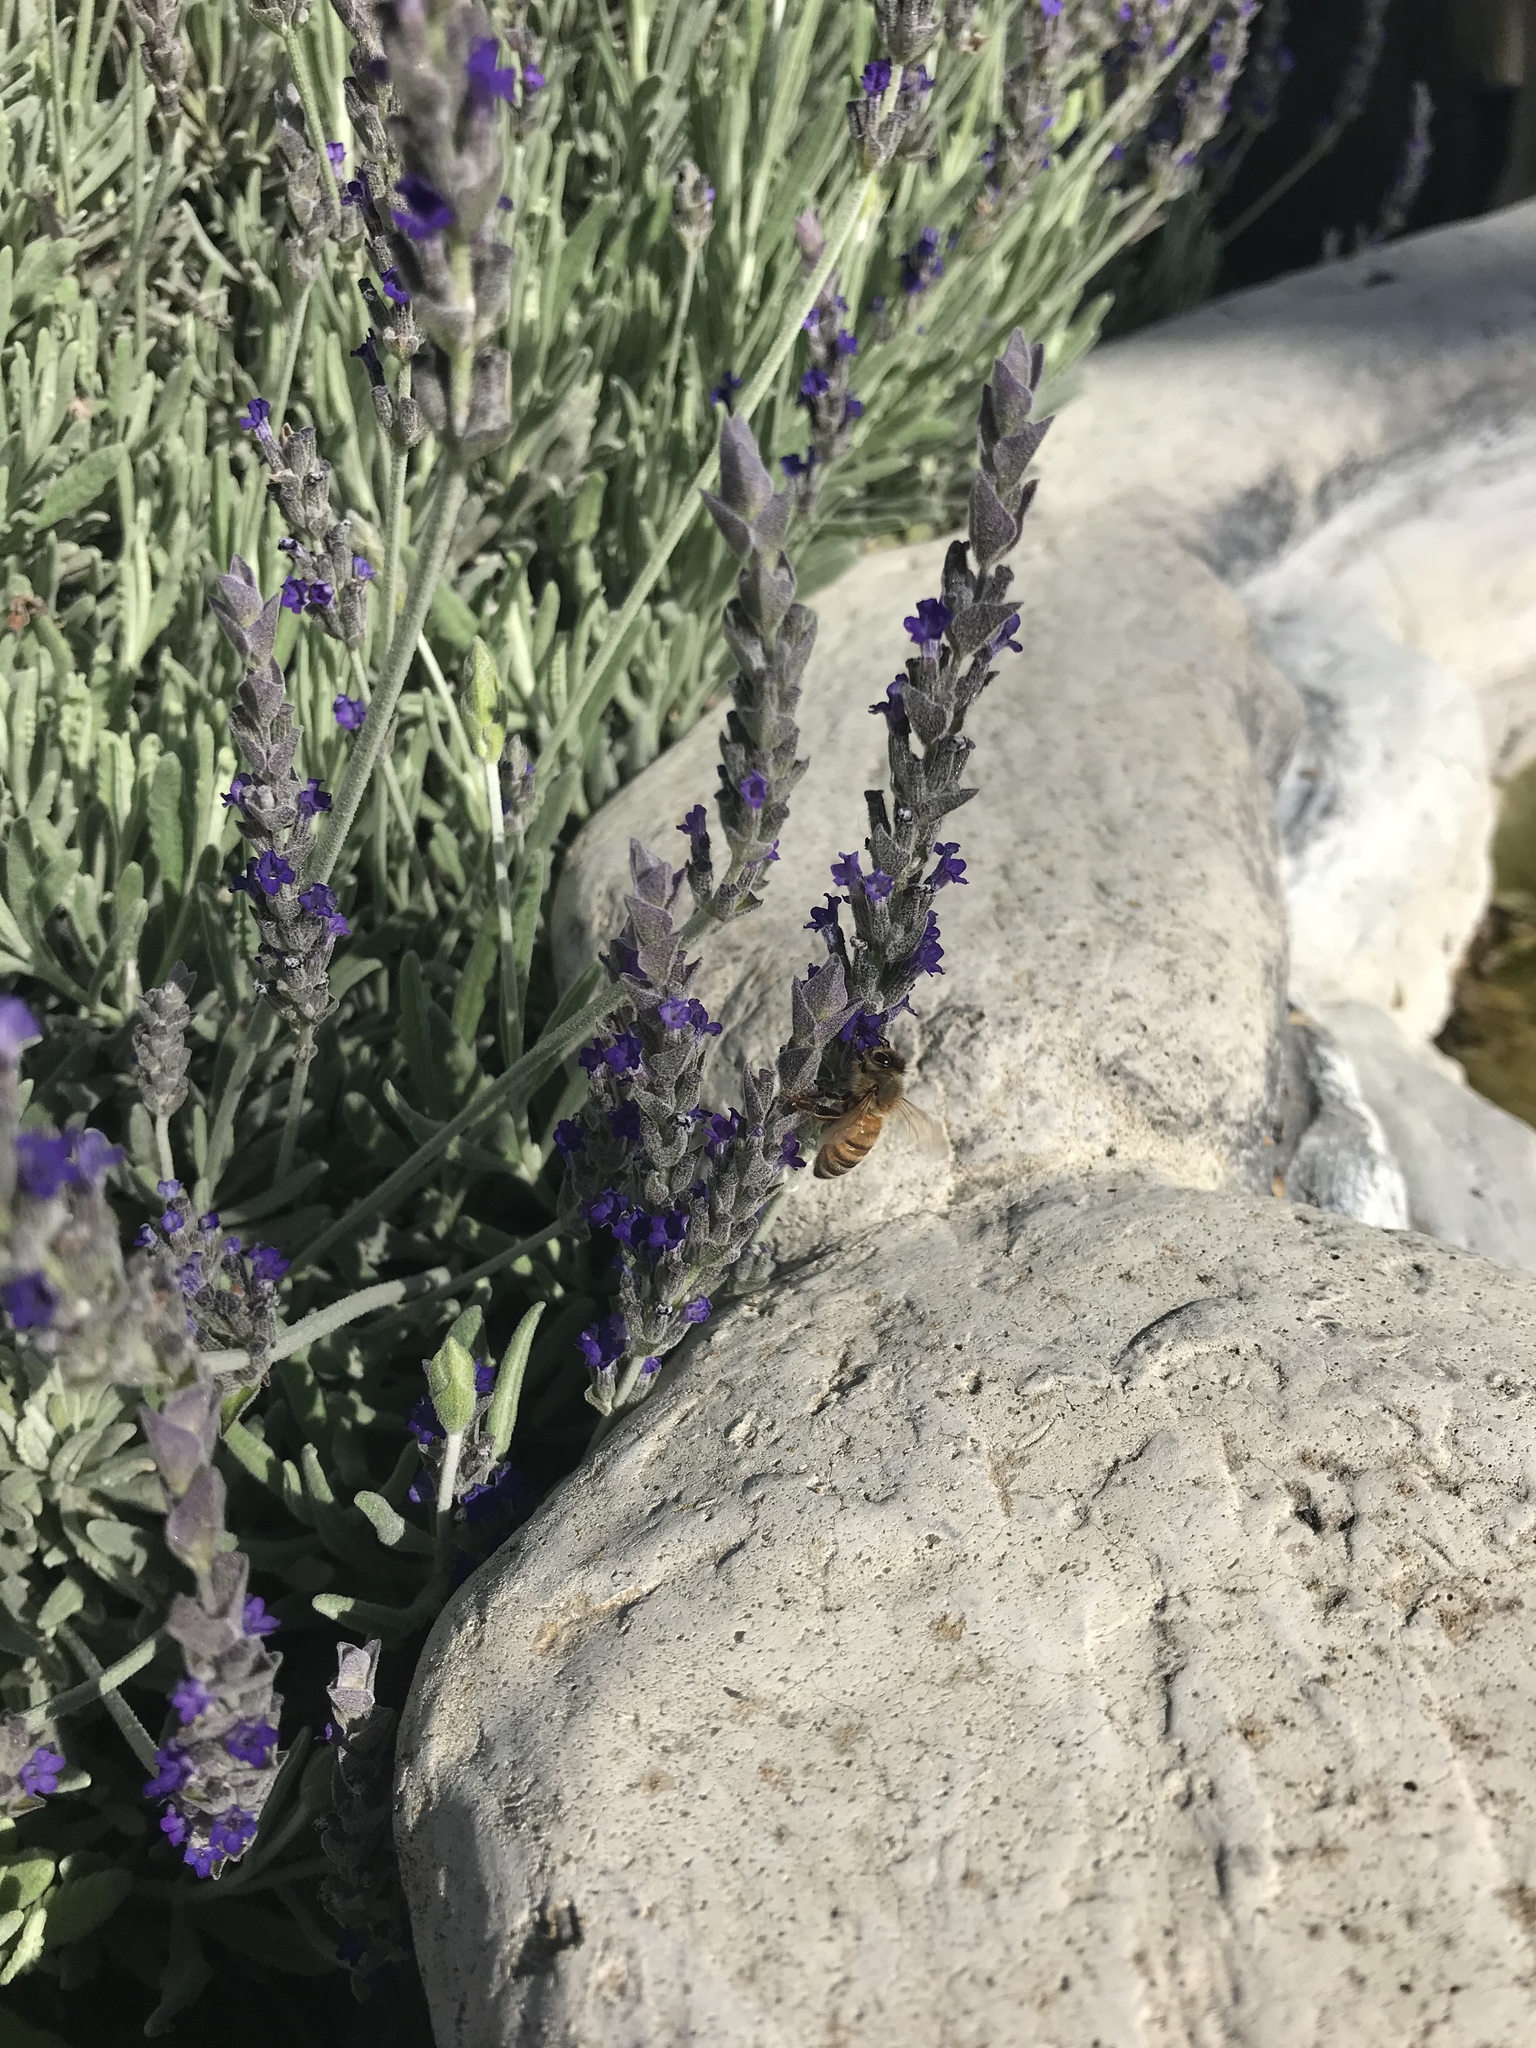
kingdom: Animalia
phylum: Arthropoda
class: Insecta
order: Hymenoptera
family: Apidae
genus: Apis
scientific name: Apis mellifera
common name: Honey bee
